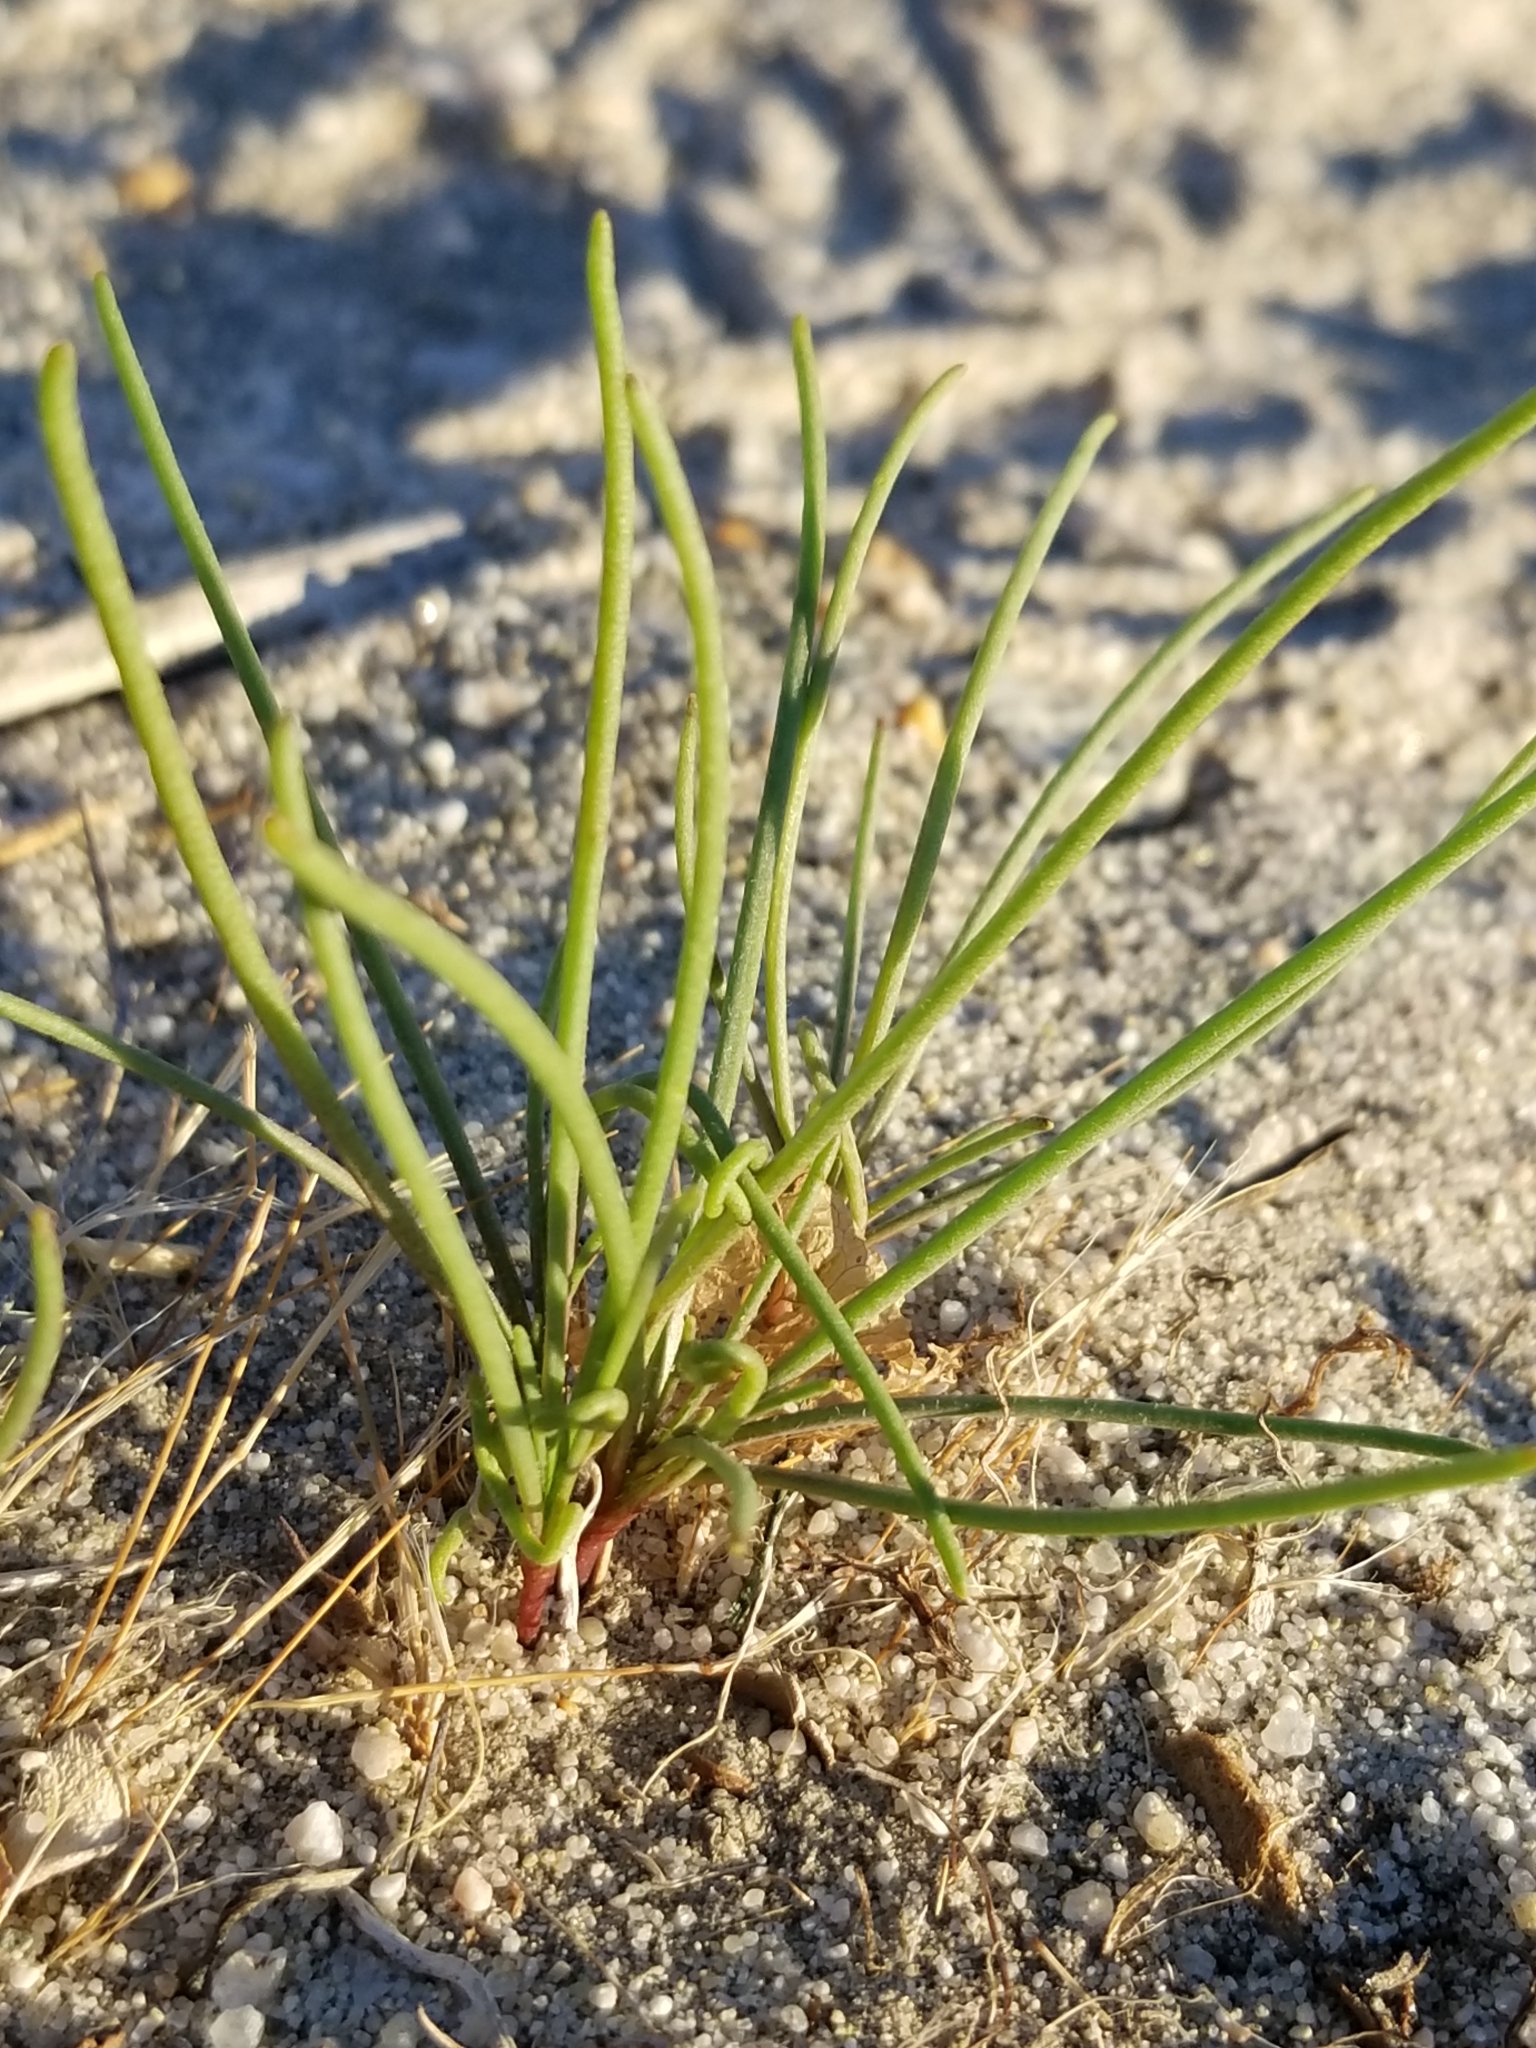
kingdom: Plantae
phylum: Tracheophyta
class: Magnoliopsida
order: Asterales
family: Asteraceae
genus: Chaenactis
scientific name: Chaenactis fremontii
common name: Fremont pincushion
